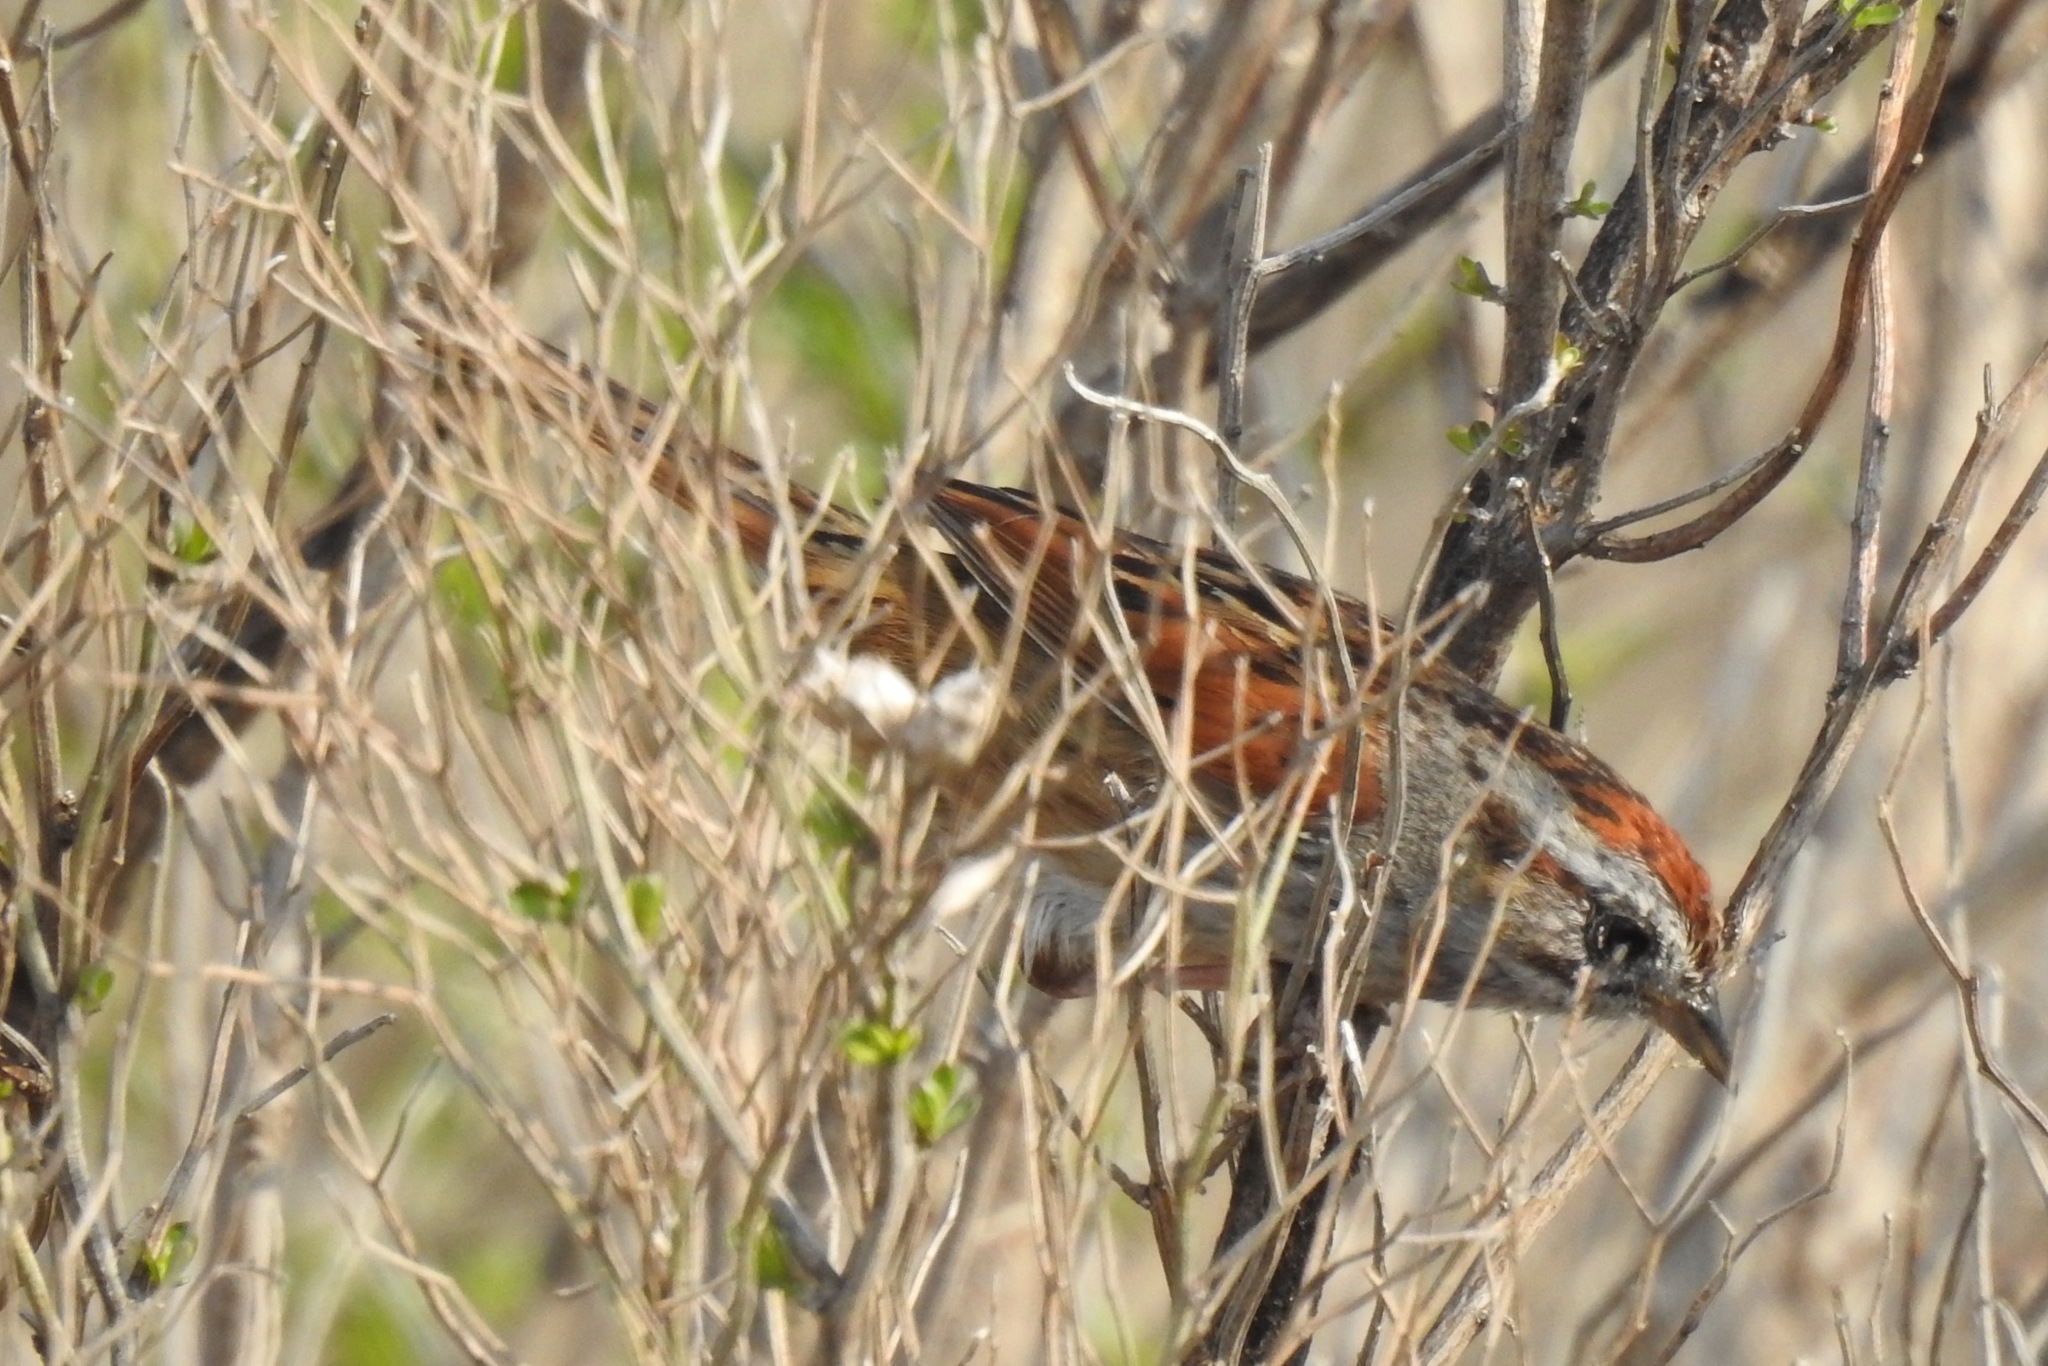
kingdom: Animalia
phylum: Chordata
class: Aves
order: Passeriformes
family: Passerellidae
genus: Melospiza
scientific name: Melospiza georgiana
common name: Swamp sparrow
